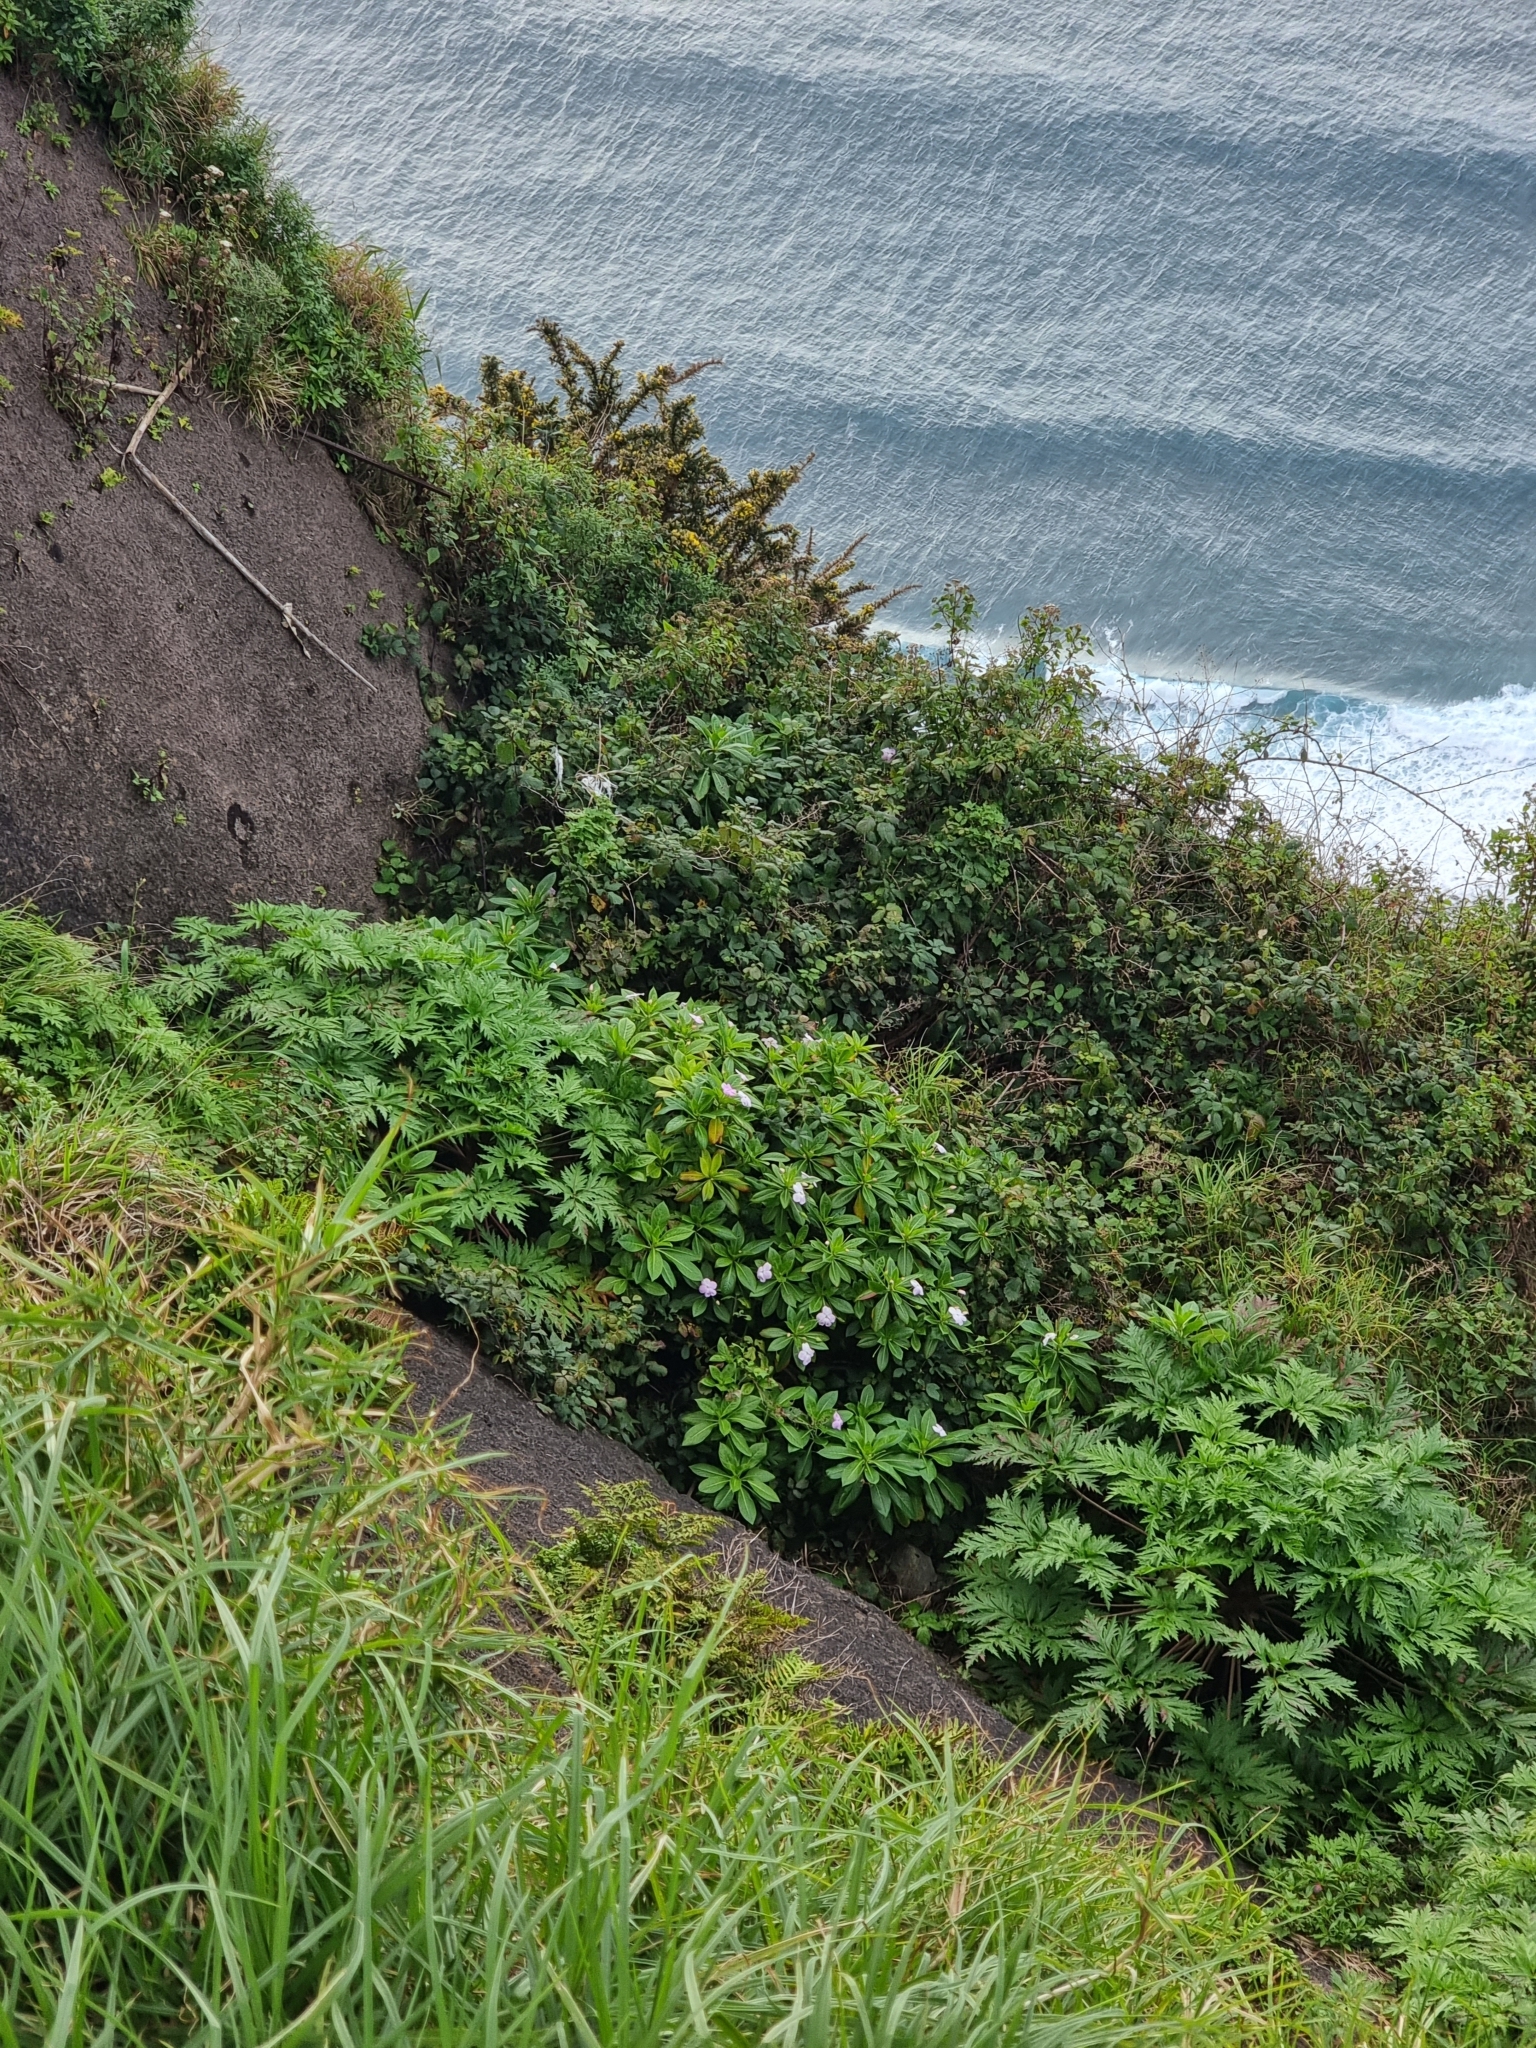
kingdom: Plantae
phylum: Tracheophyta
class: Magnoliopsida
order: Geraniales
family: Geraniaceae
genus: Geranium
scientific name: Geranium maderense
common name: Giant herb-robert
